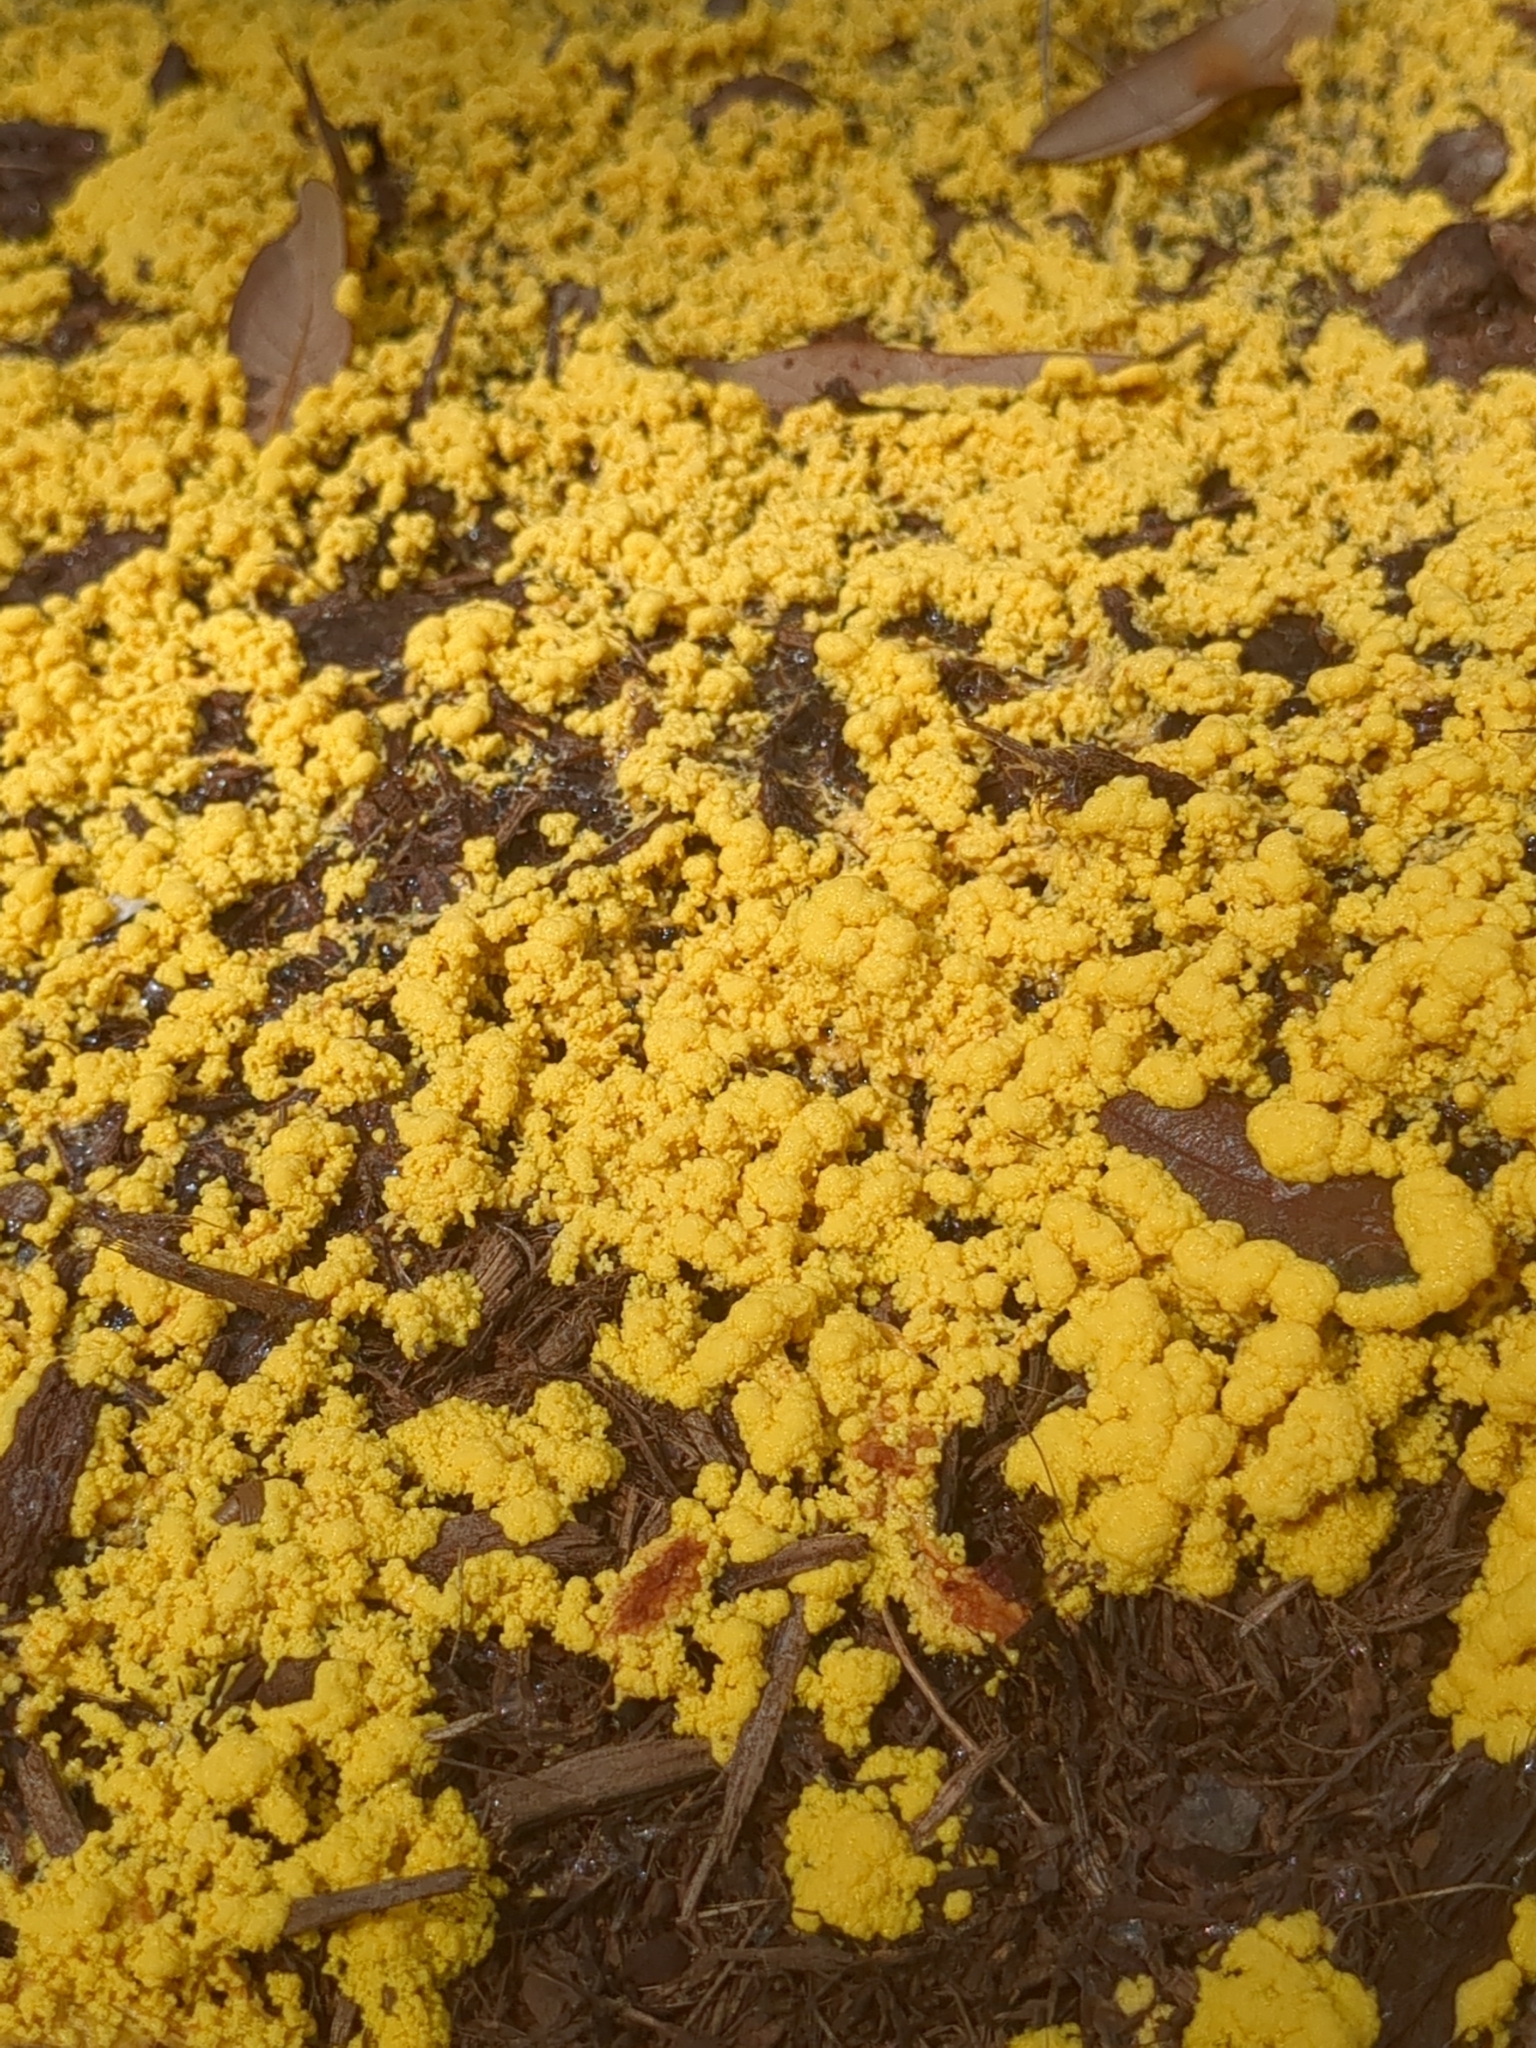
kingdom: Protozoa
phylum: Mycetozoa
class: Myxomycetes
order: Physarales
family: Physaraceae
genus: Fuligo
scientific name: Fuligo septica
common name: Dog vomit slime mold
